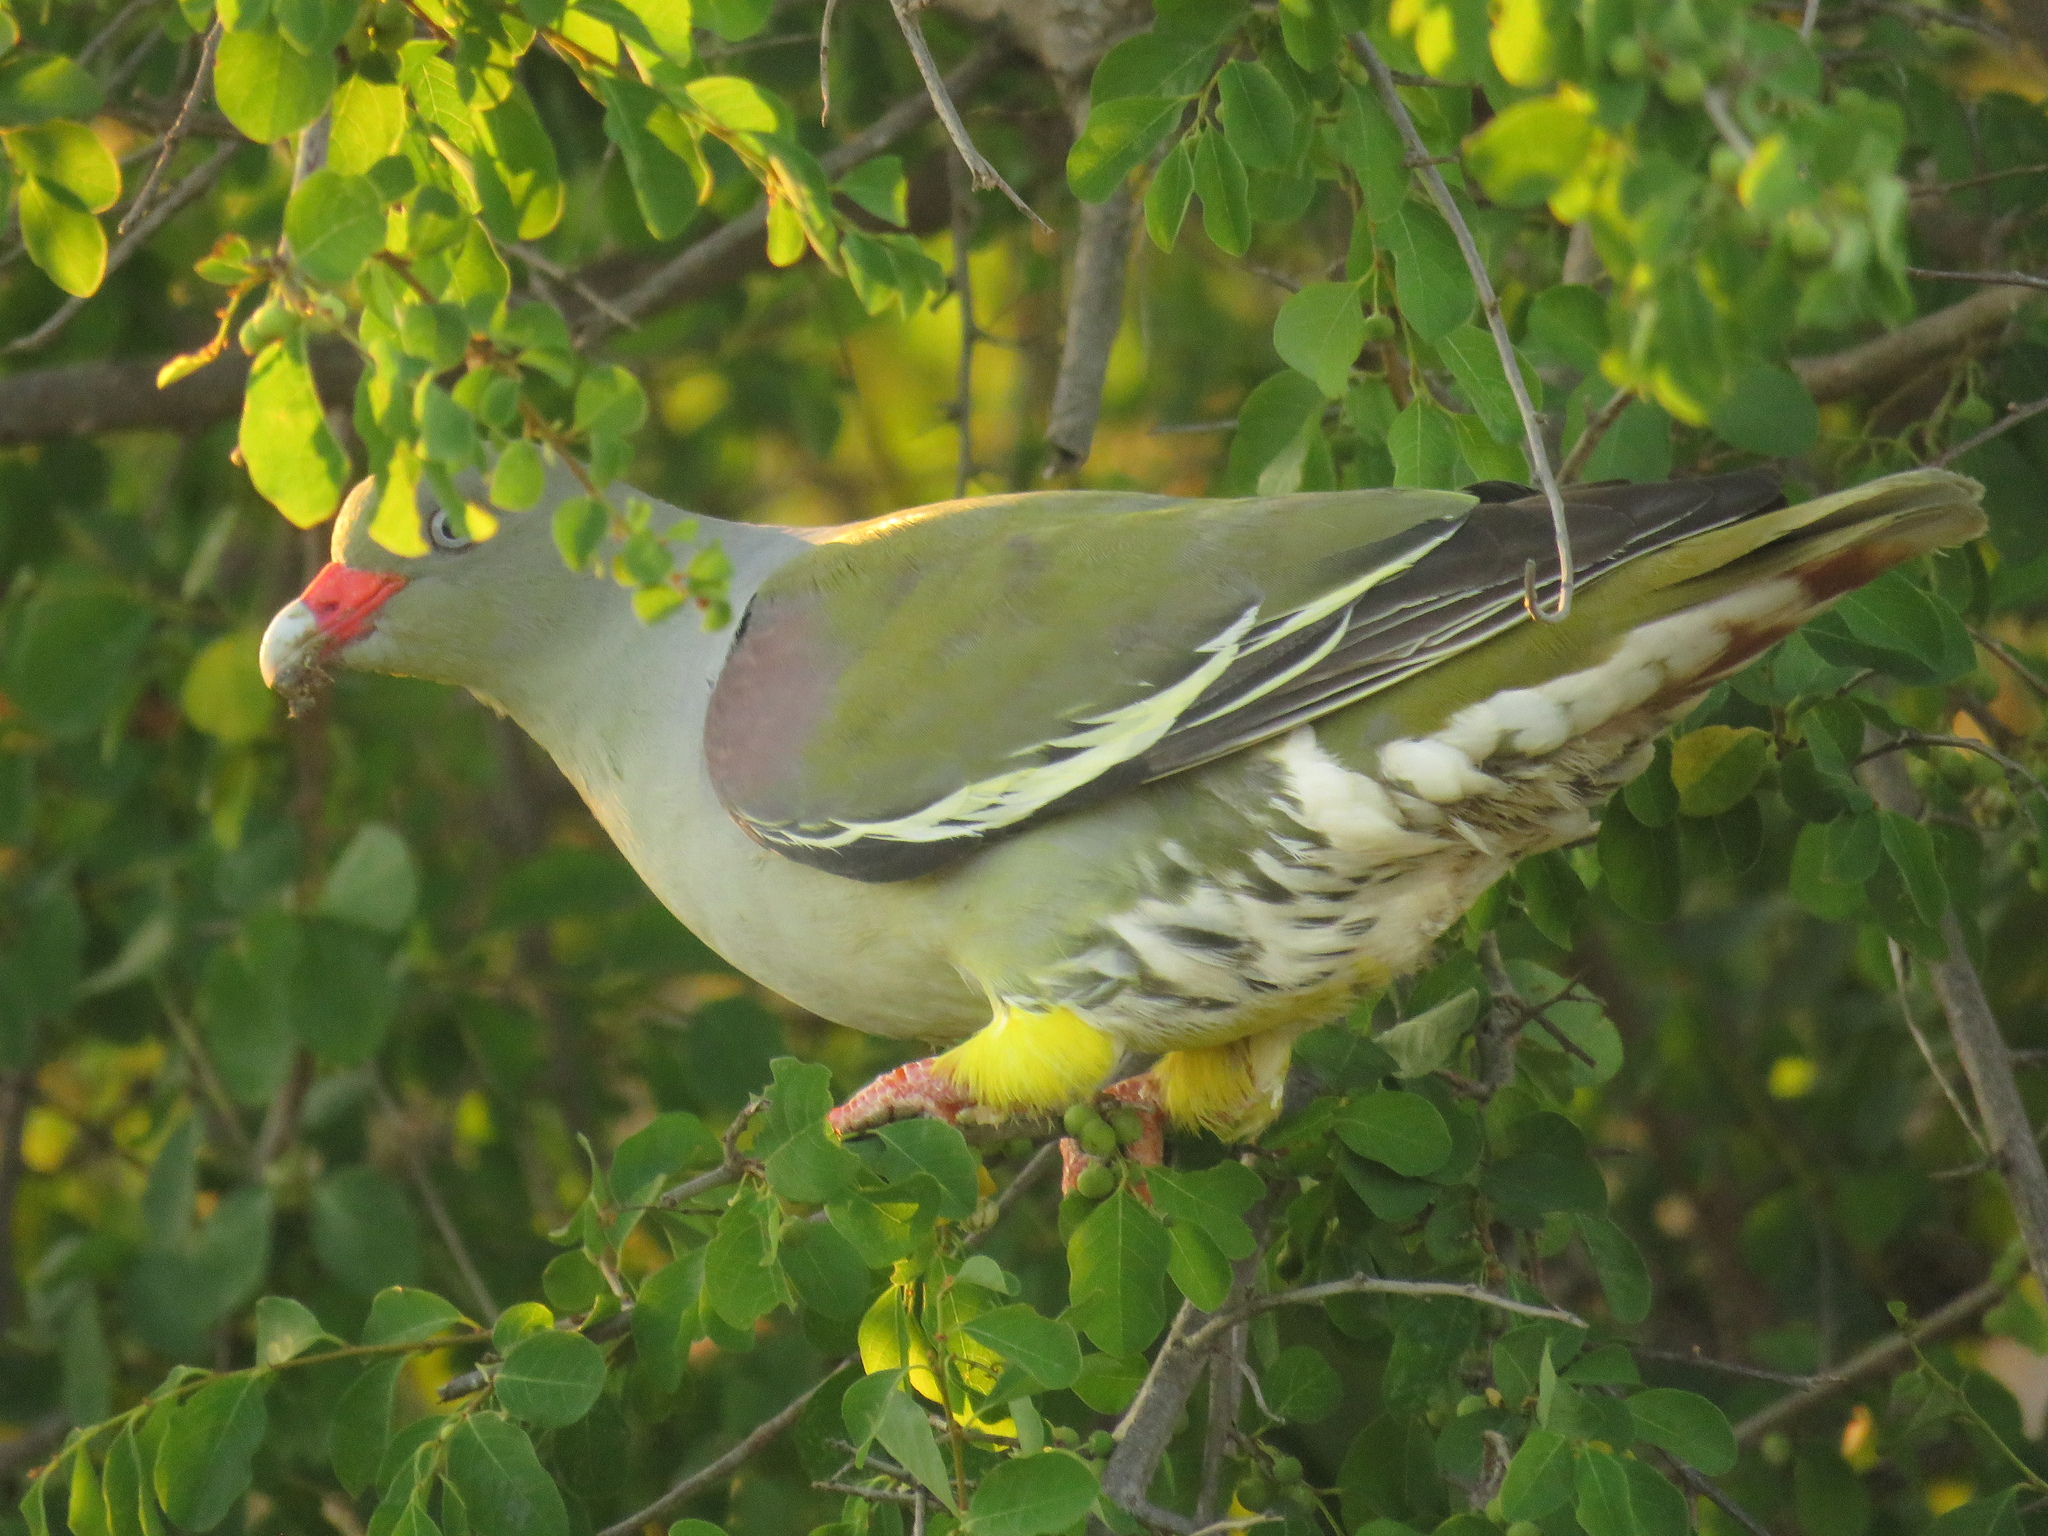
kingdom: Animalia
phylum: Chordata
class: Aves
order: Columbiformes
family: Columbidae
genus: Treron
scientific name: Treron calvus
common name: African green pigeon
